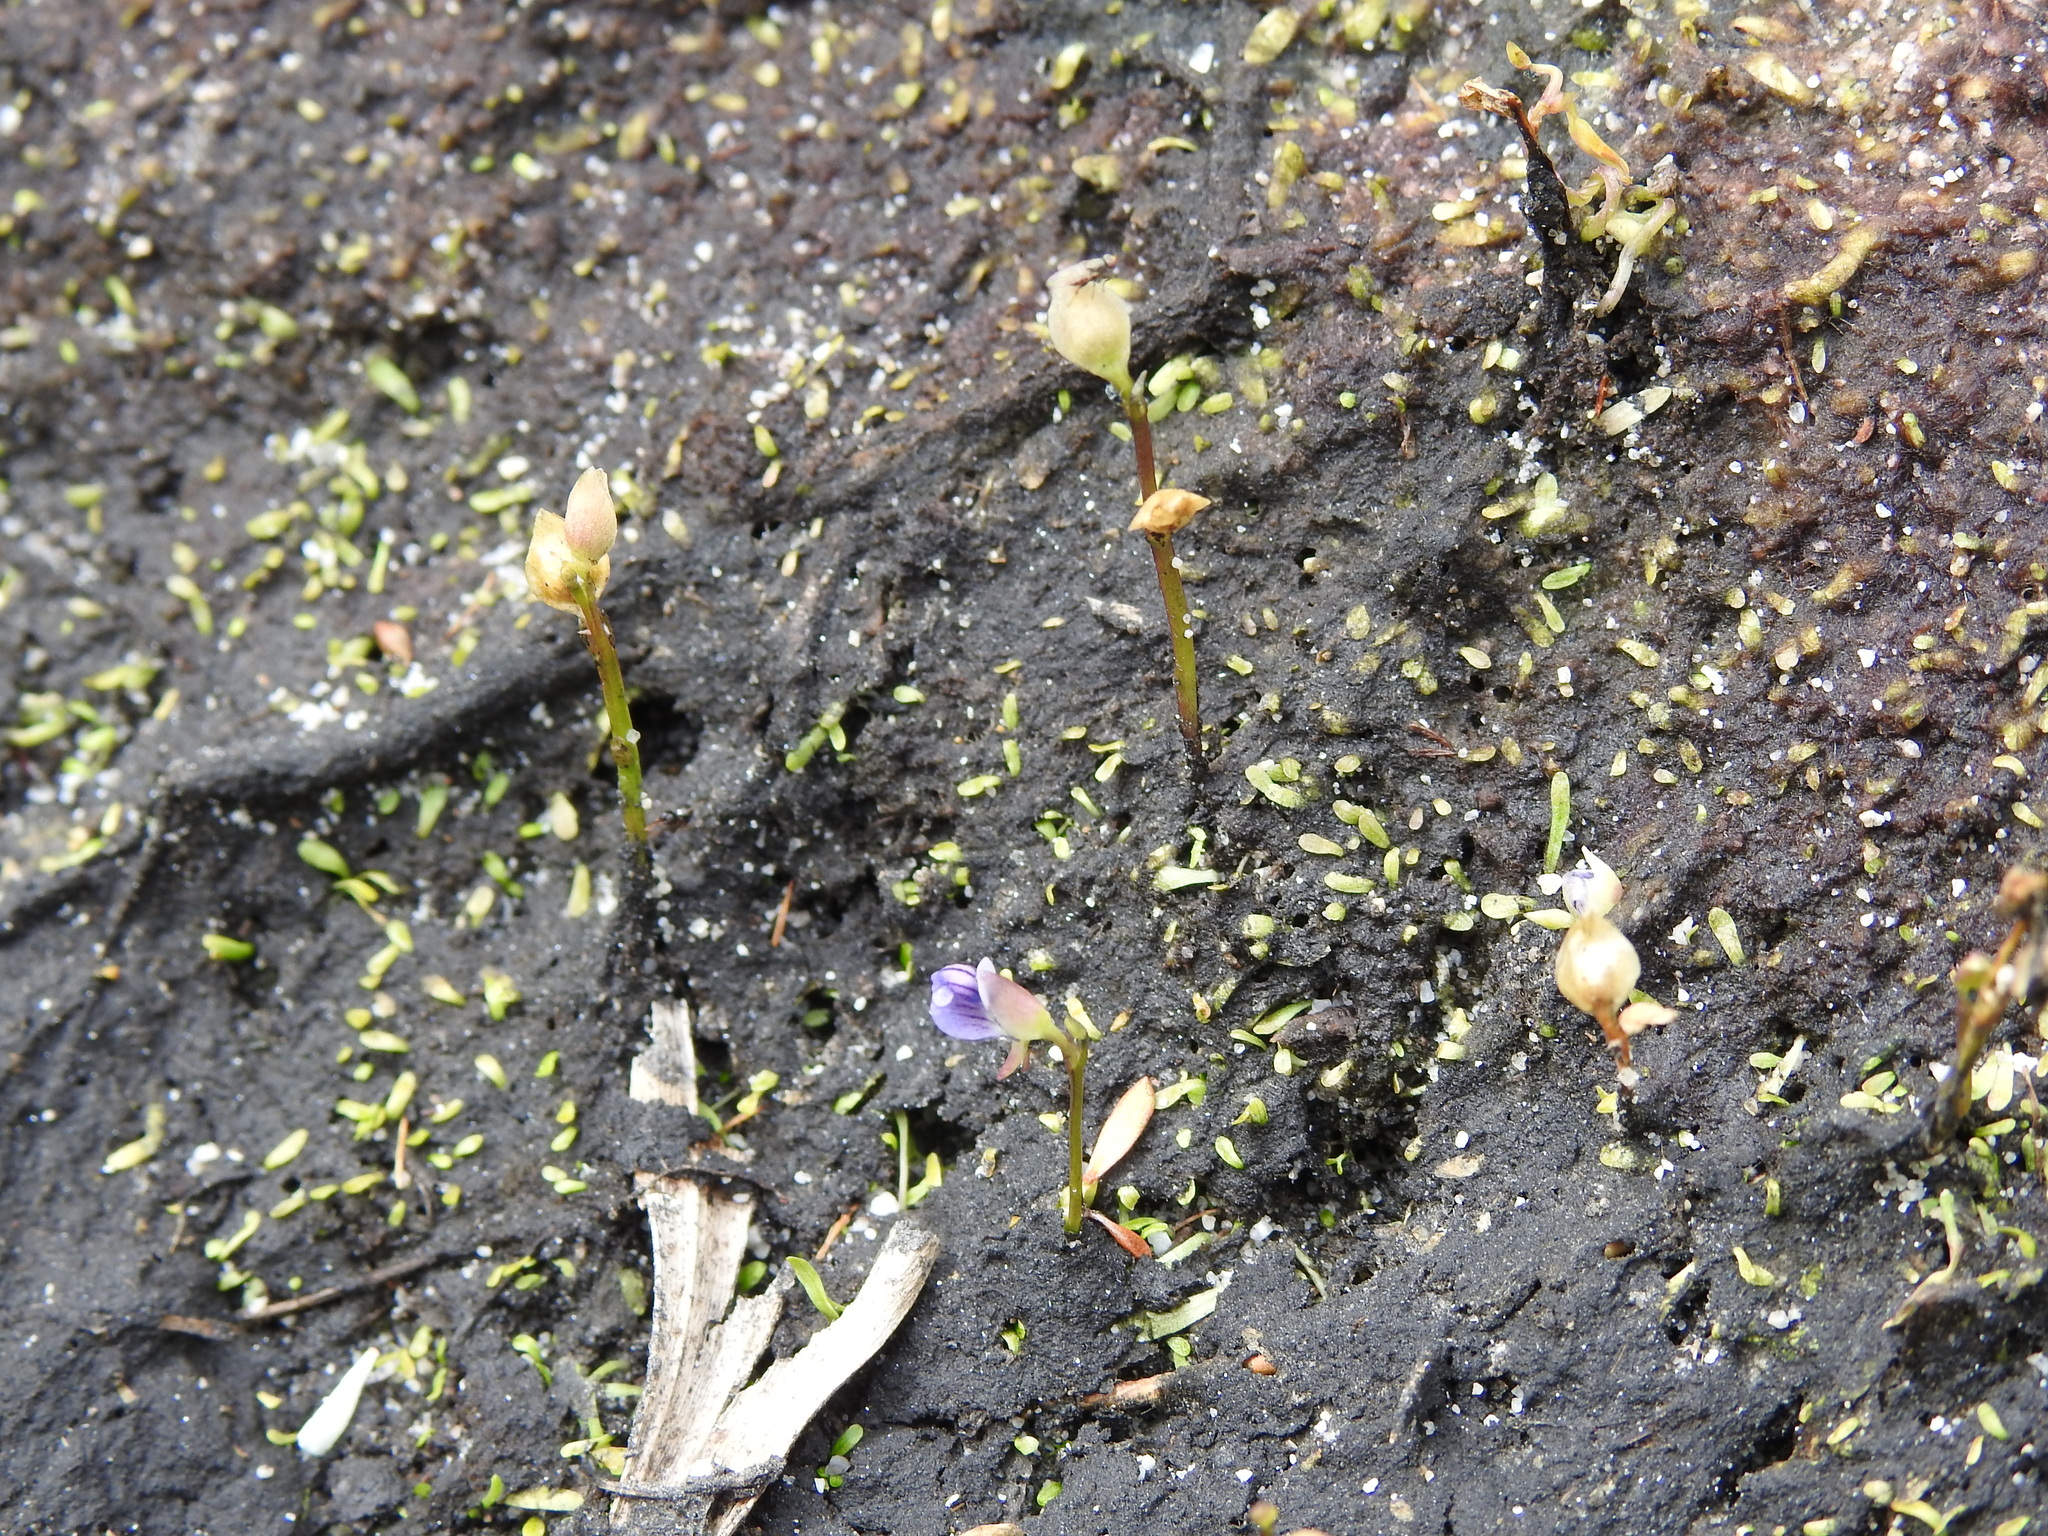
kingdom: Plantae
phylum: Tracheophyta
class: Magnoliopsida
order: Lamiales
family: Lentibulariaceae
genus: Utricularia
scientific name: Utricularia uliginosa
